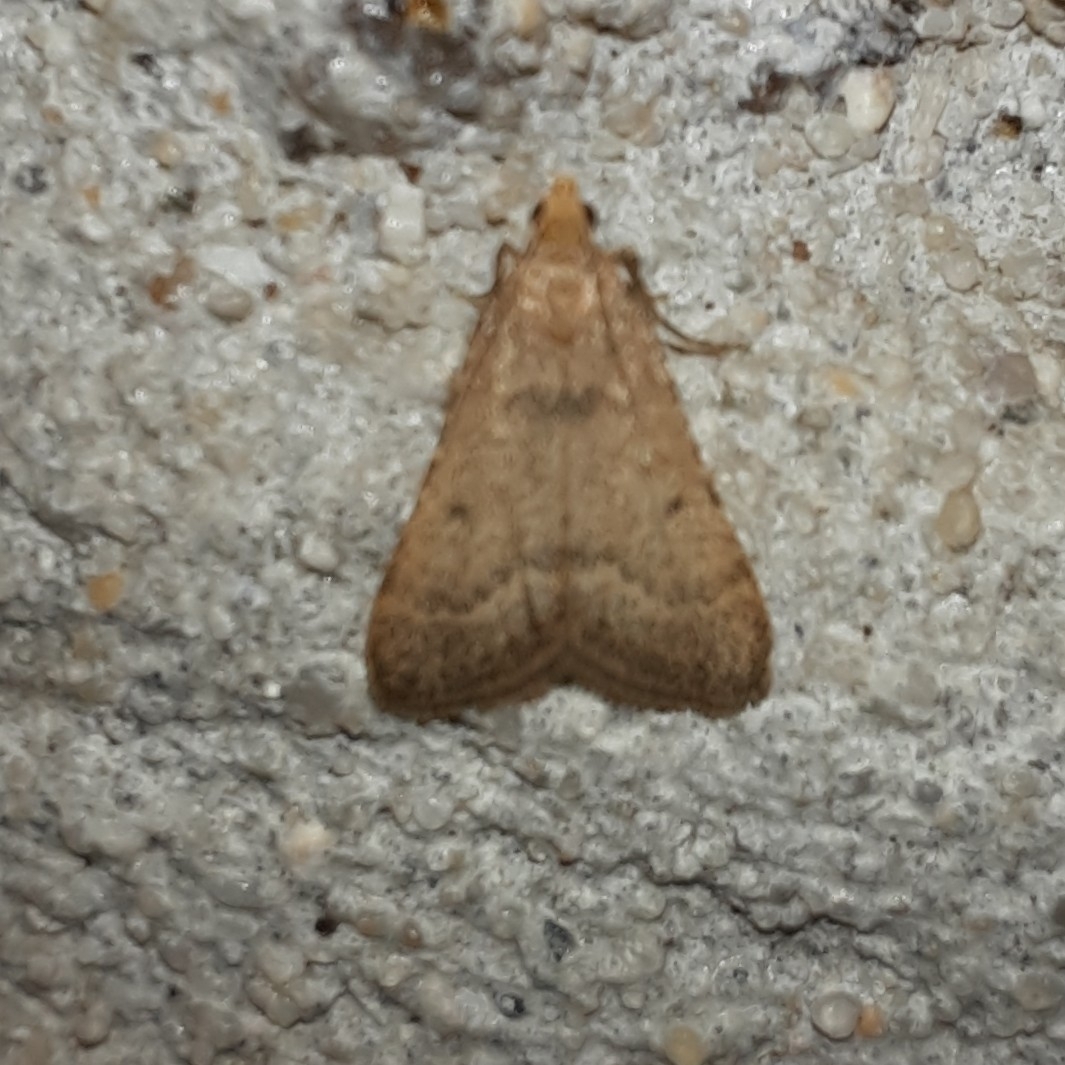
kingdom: Animalia
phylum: Arthropoda
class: Insecta
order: Lepidoptera
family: Pyralidae
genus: Bostra
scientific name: Bostra obsoletalis
